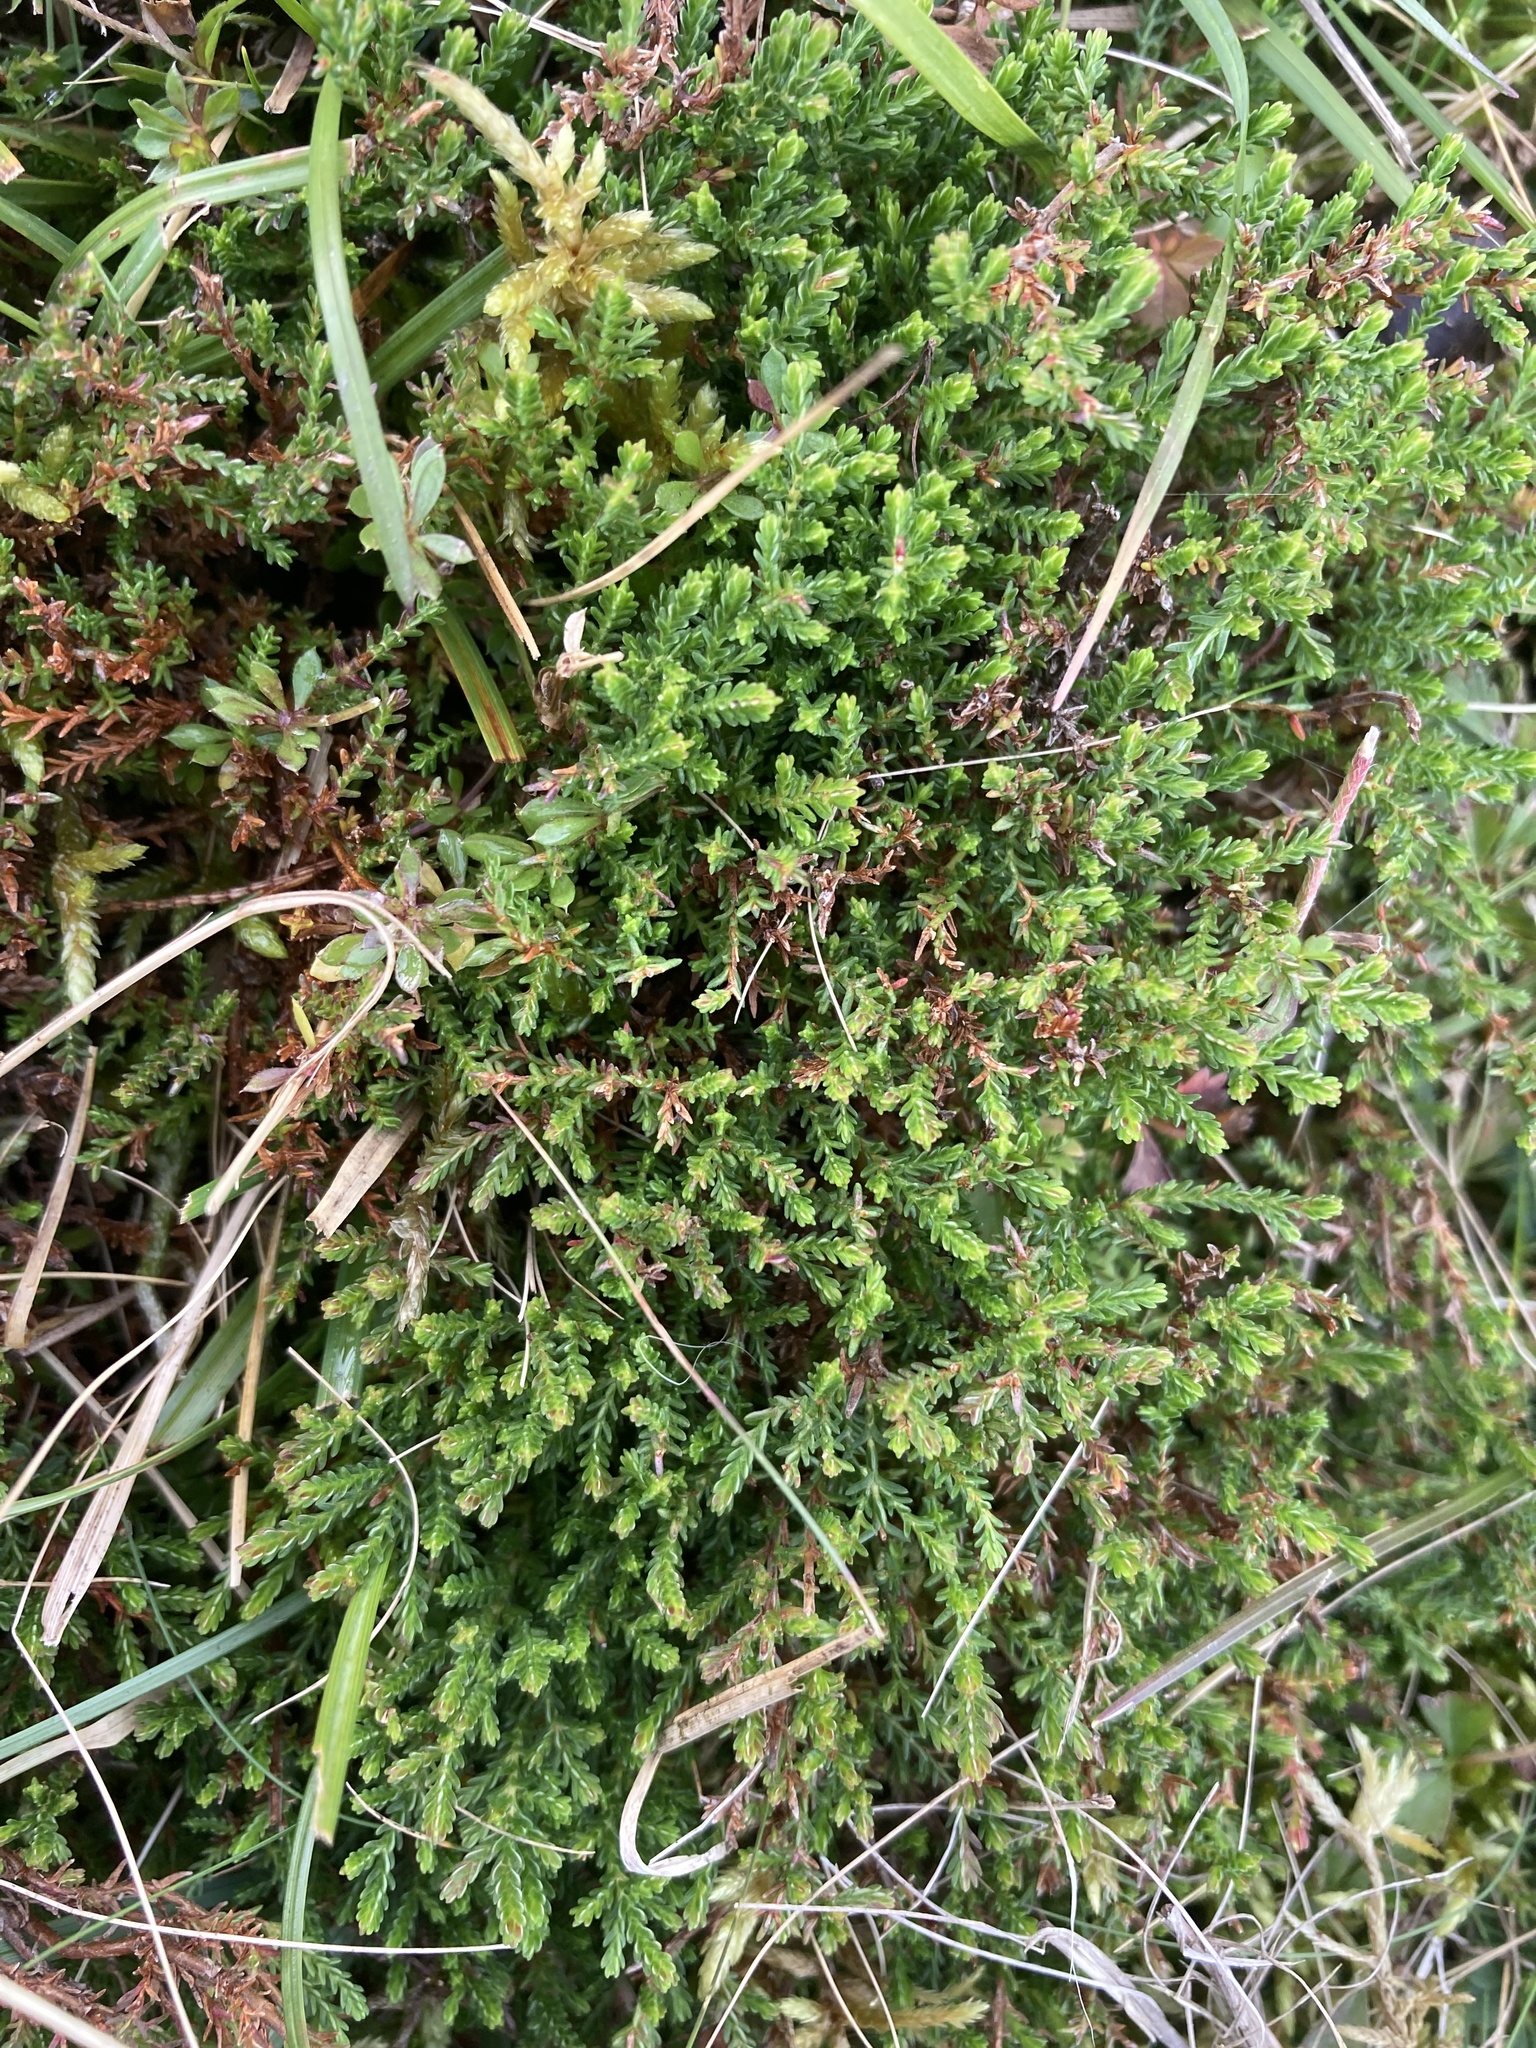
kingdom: Plantae
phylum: Tracheophyta
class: Magnoliopsida
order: Ericales
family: Ericaceae
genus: Calluna
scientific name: Calluna vulgaris
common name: Heather
